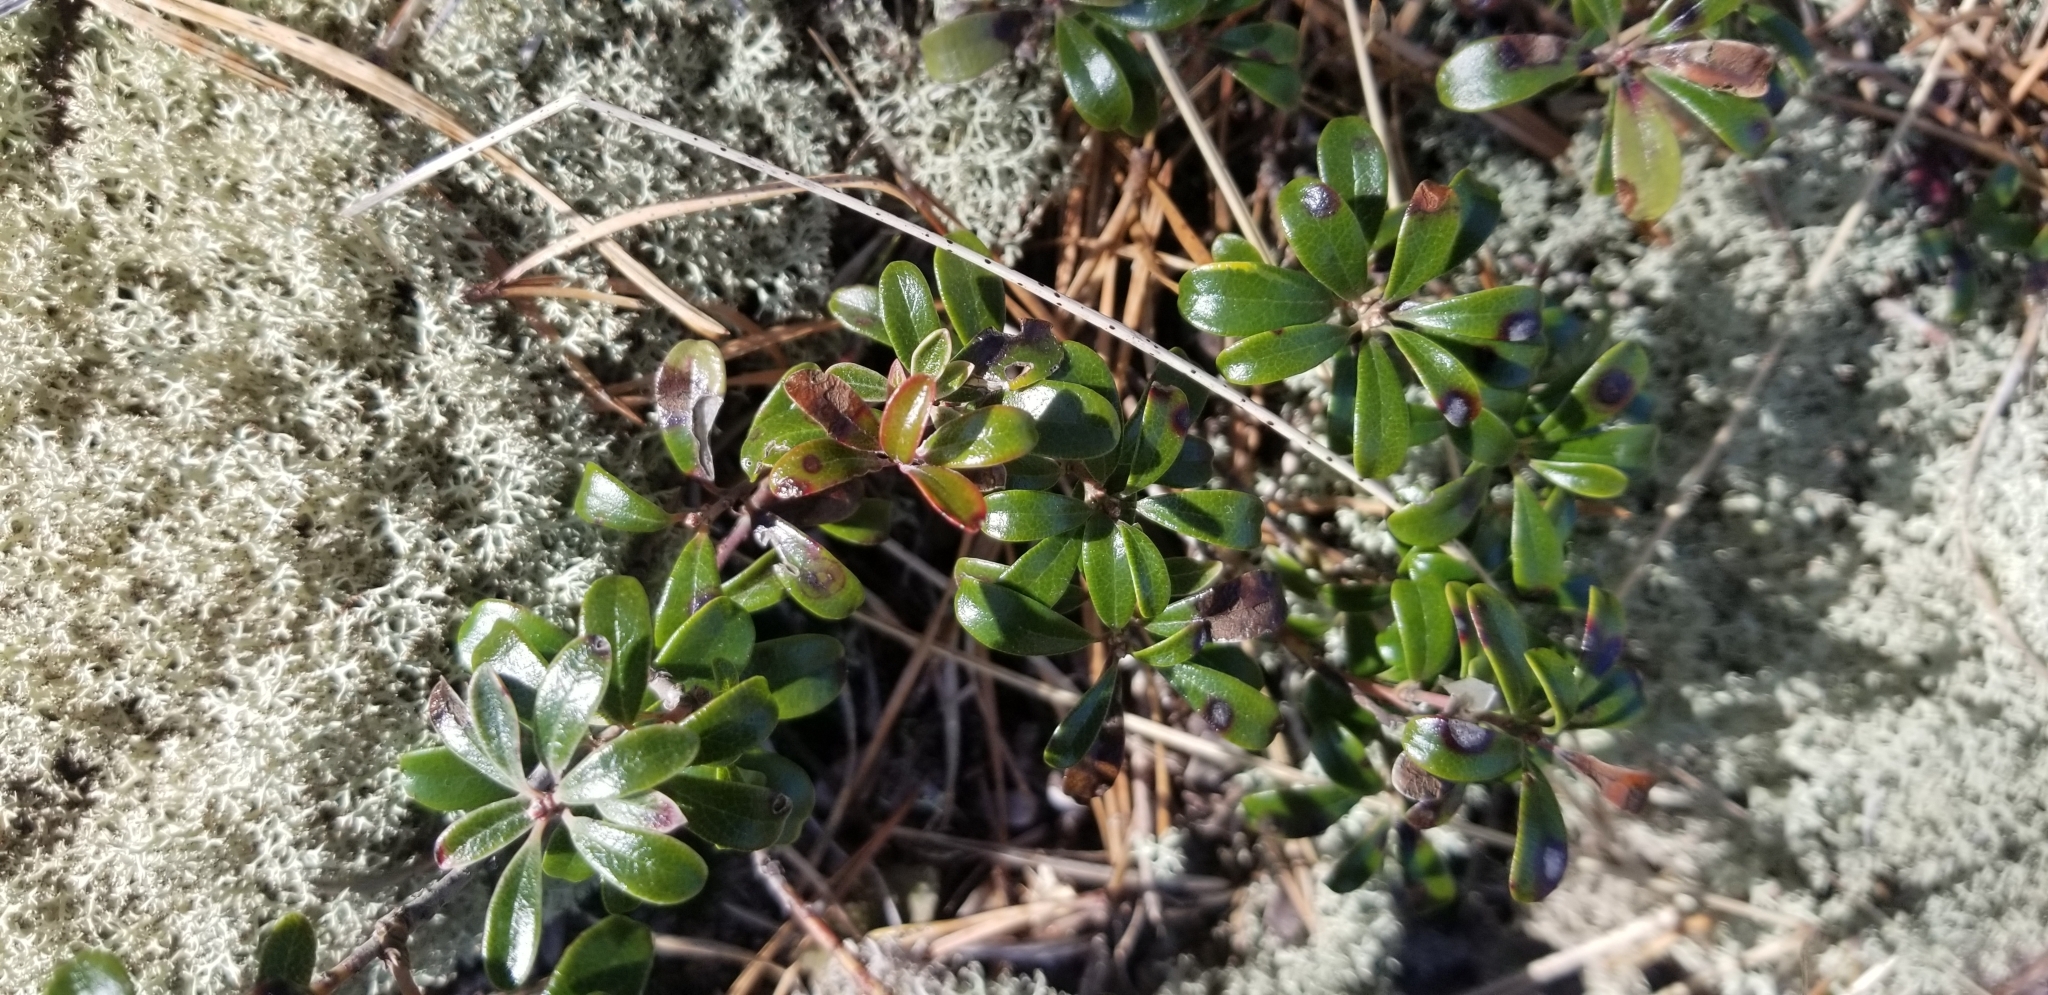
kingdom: Plantae
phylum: Tracheophyta
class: Magnoliopsida
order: Ericales
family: Ericaceae
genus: Arctostaphylos
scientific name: Arctostaphylos uva-ursi
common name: Bearberry
